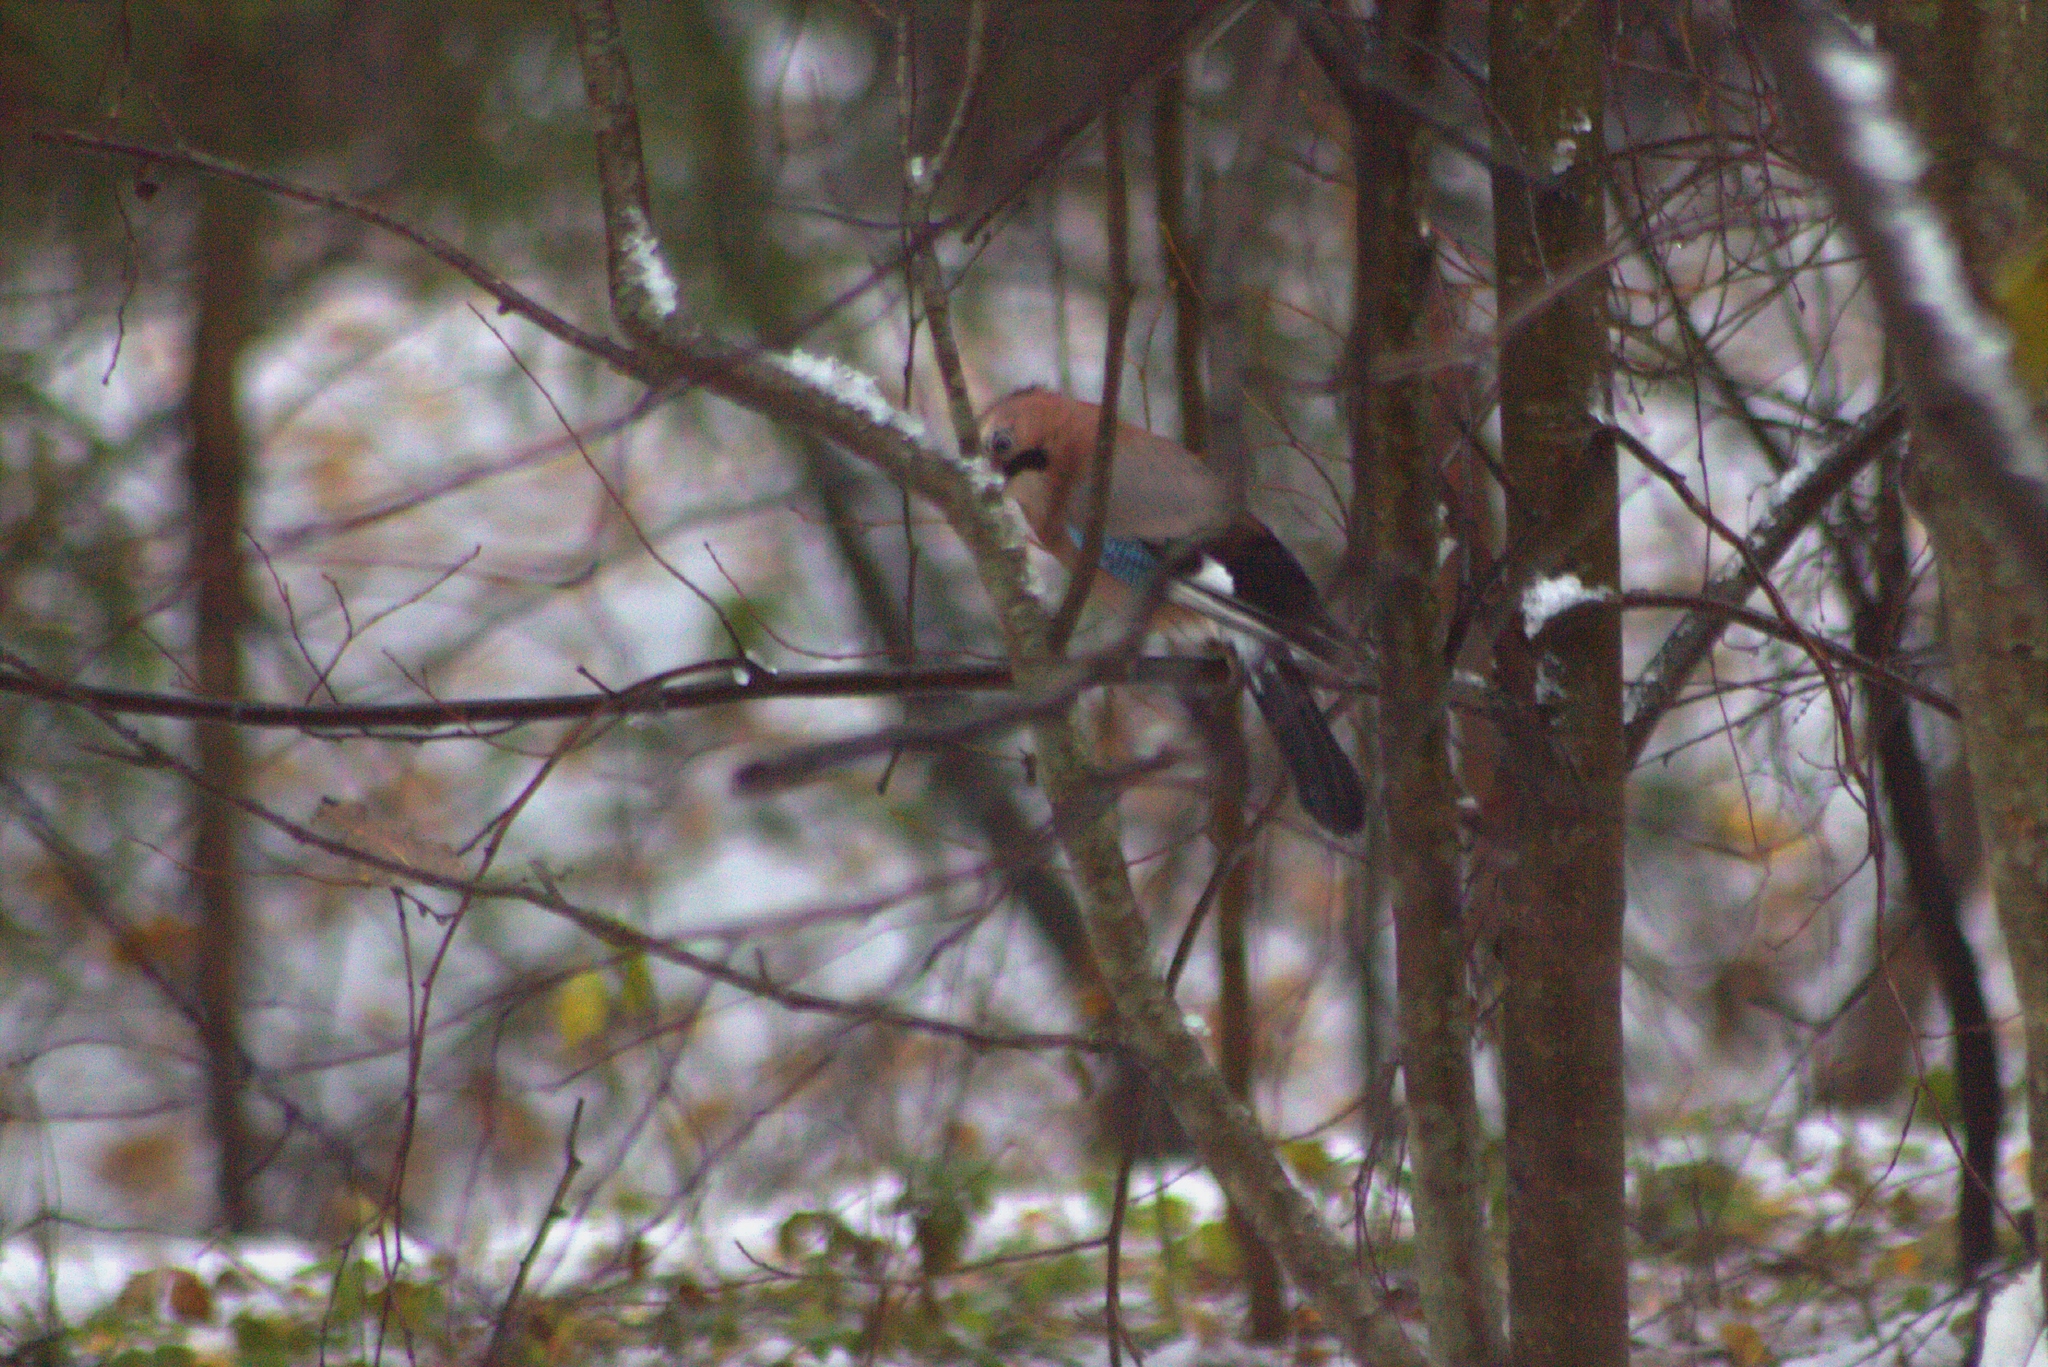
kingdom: Animalia
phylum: Chordata
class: Aves
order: Passeriformes
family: Corvidae
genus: Garrulus
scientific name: Garrulus glandarius
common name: Eurasian jay
